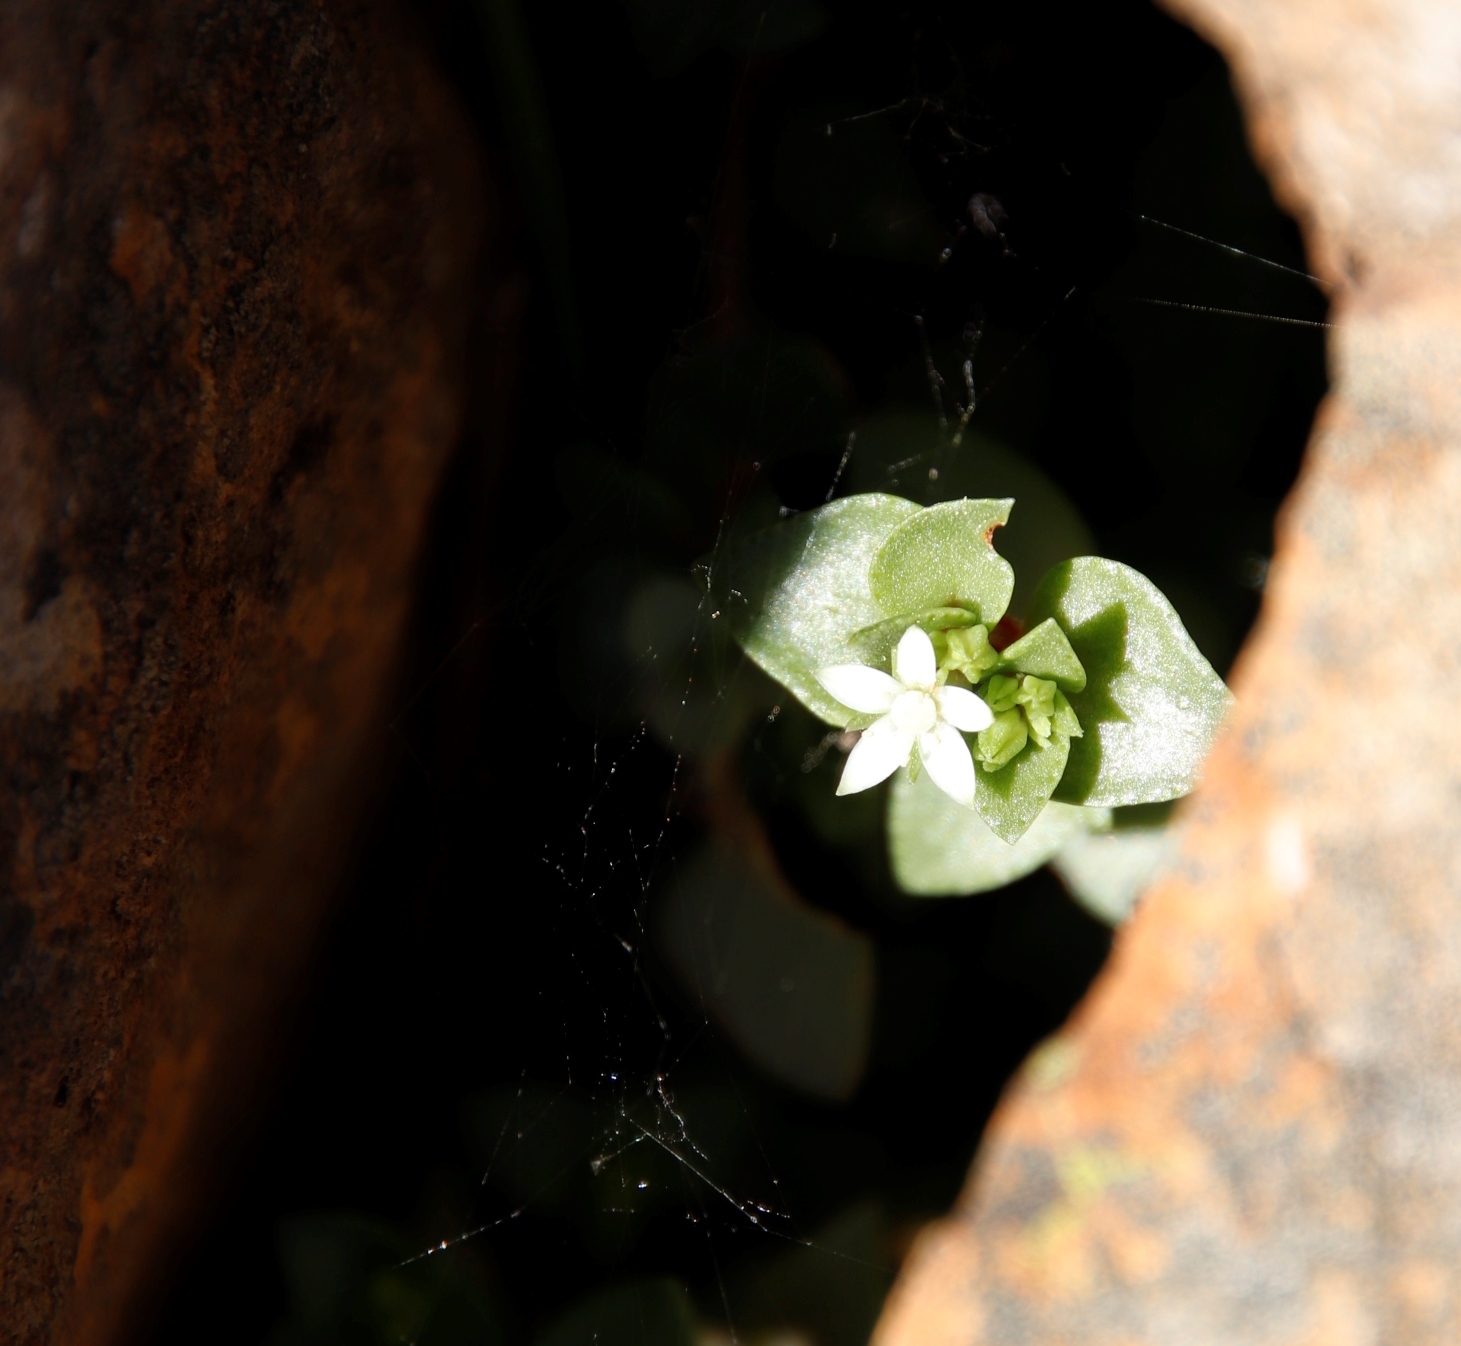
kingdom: Plantae
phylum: Tracheophyta
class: Magnoliopsida
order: Saxifragales
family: Crassulaceae
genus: Crassula
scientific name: Crassula pellucida
